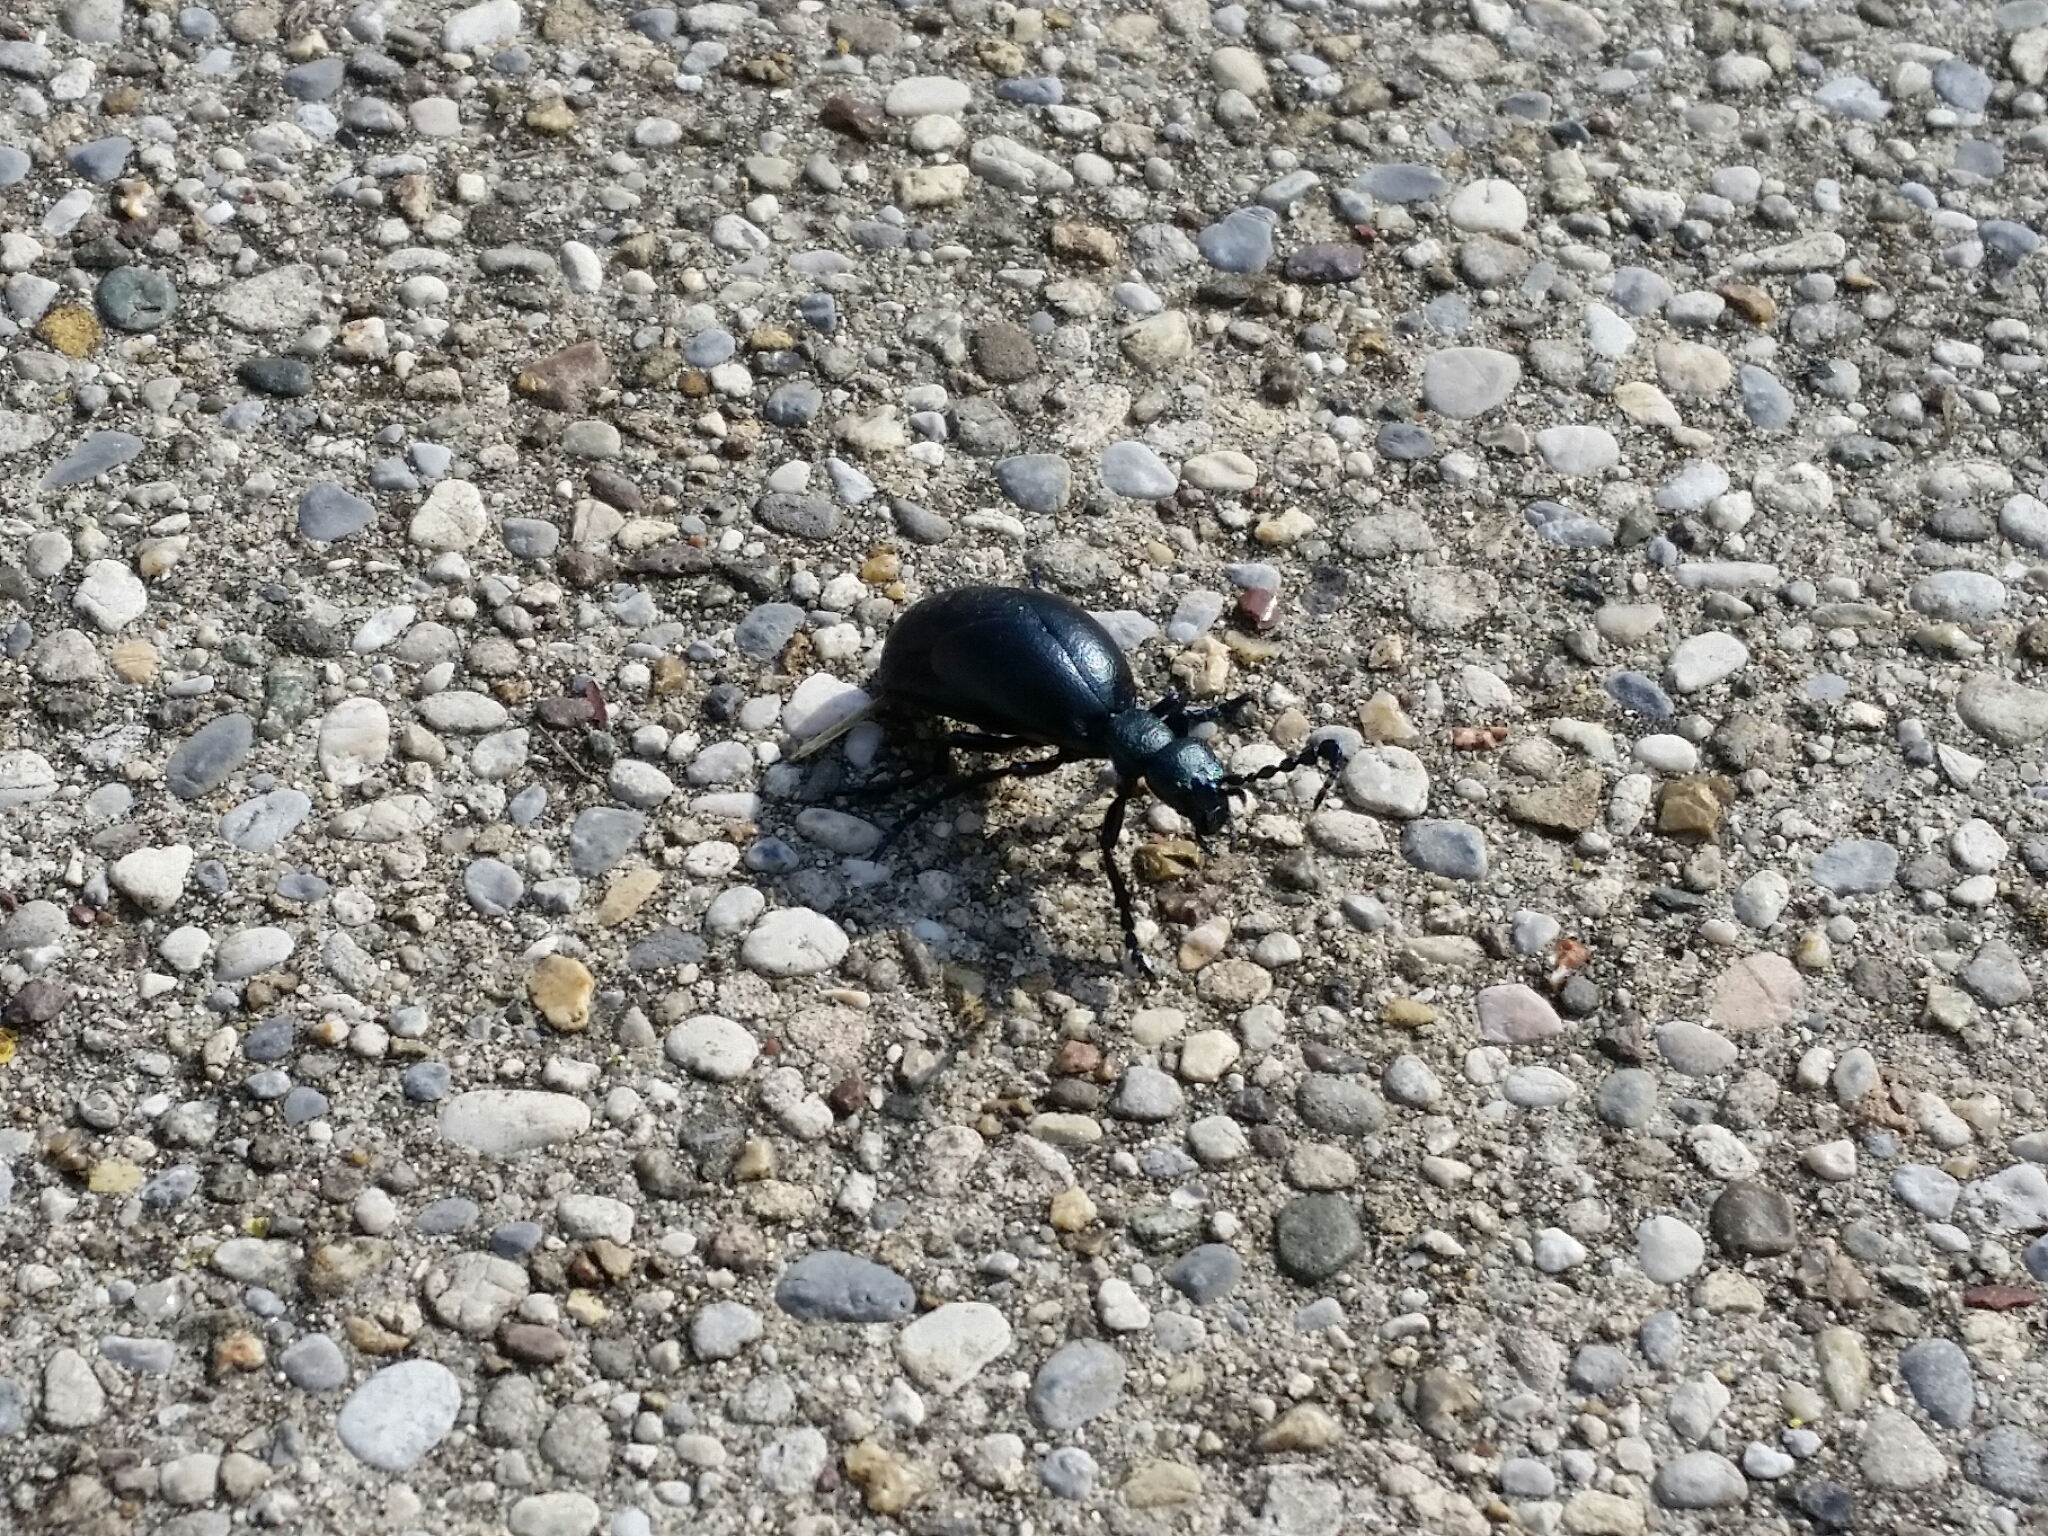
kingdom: Animalia
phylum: Arthropoda
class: Insecta
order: Coleoptera
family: Meloidae
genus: Meloe
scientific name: Meloe proscarabaeus
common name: Black oil-beetle
